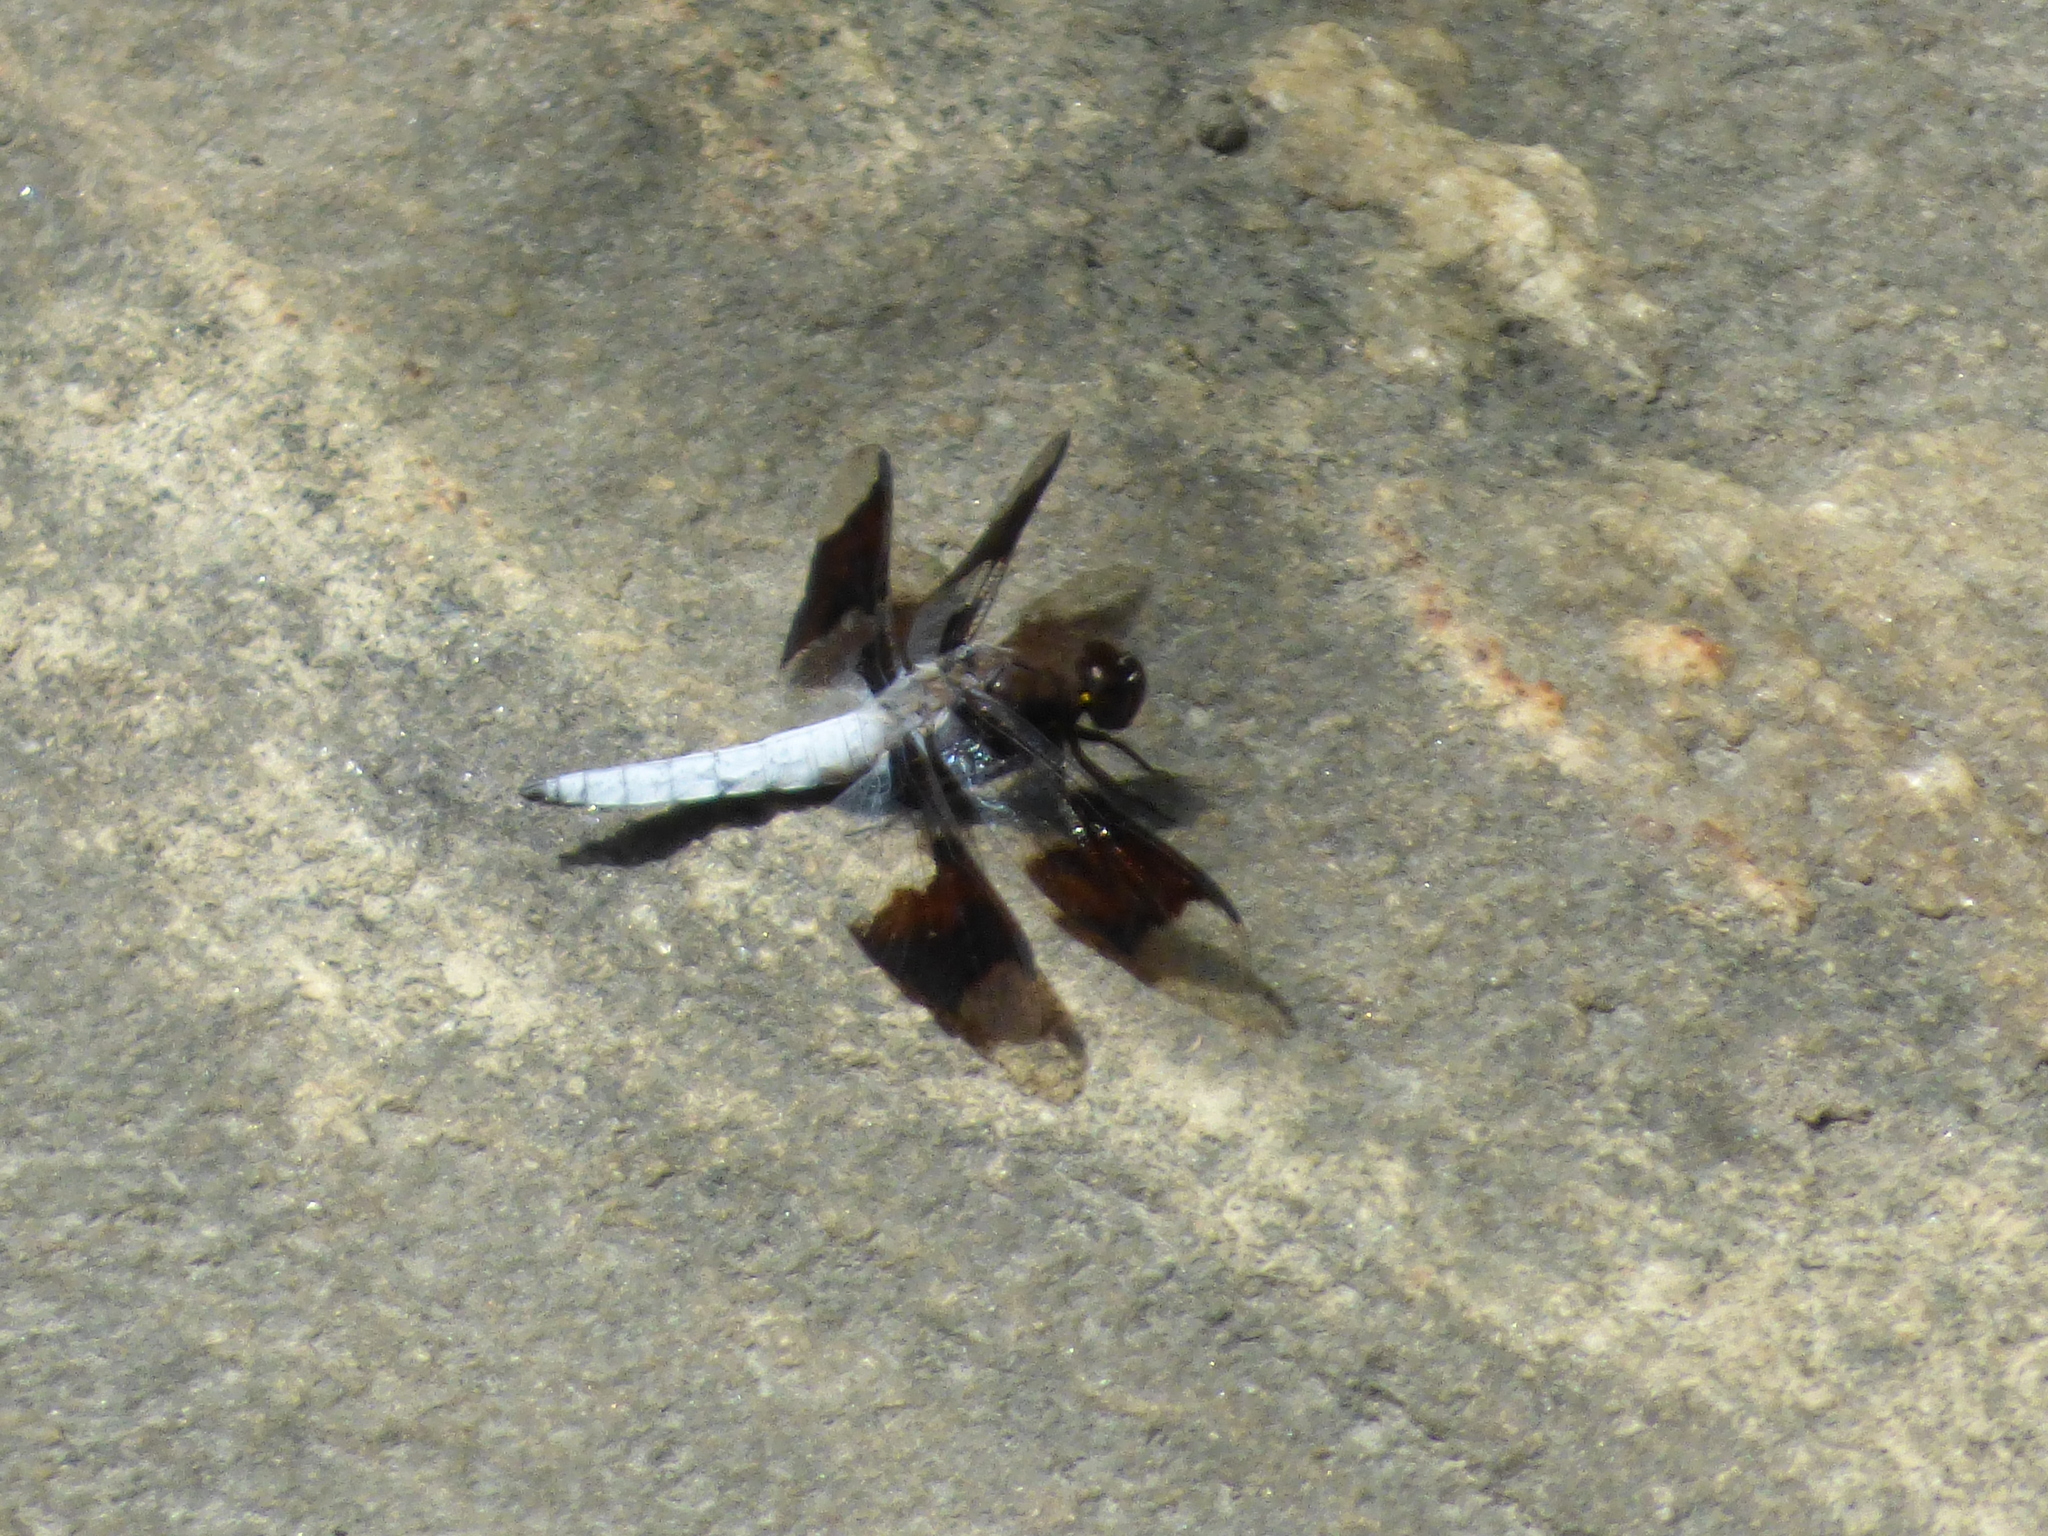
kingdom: Animalia
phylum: Arthropoda
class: Insecta
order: Odonata
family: Libellulidae
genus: Plathemis
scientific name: Plathemis lydia
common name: Common whitetail
